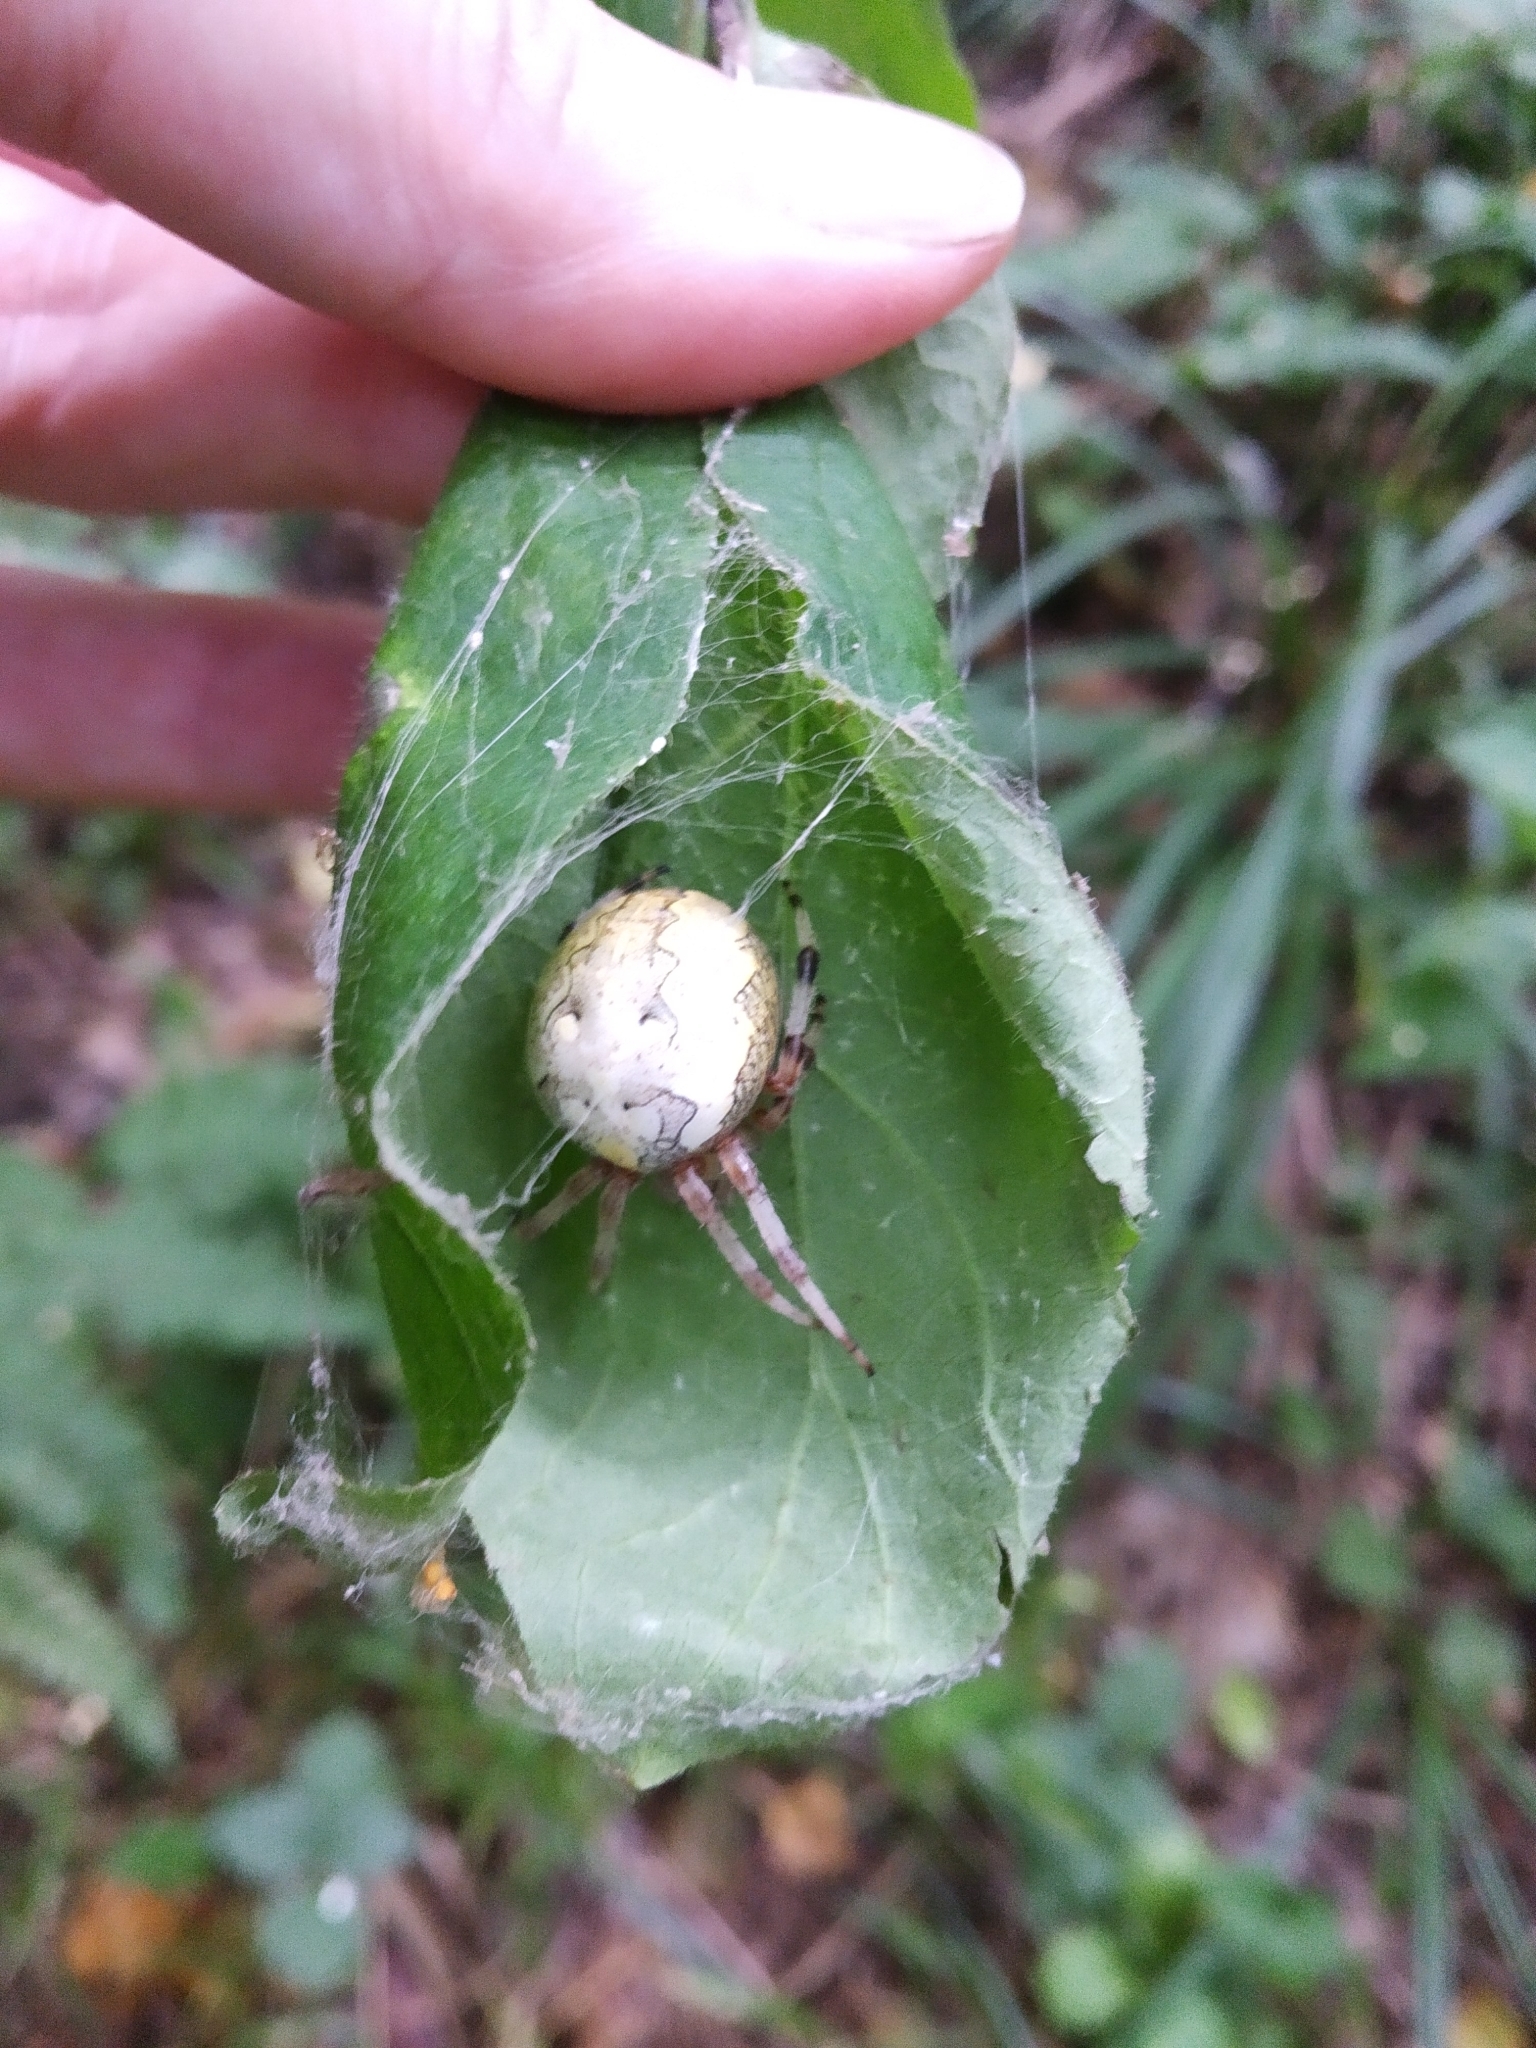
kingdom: Animalia
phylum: Arthropoda
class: Arachnida
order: Araneae
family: Araneidae
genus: Araneus
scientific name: Araneus marmoreus
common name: Marbled orbweaver
